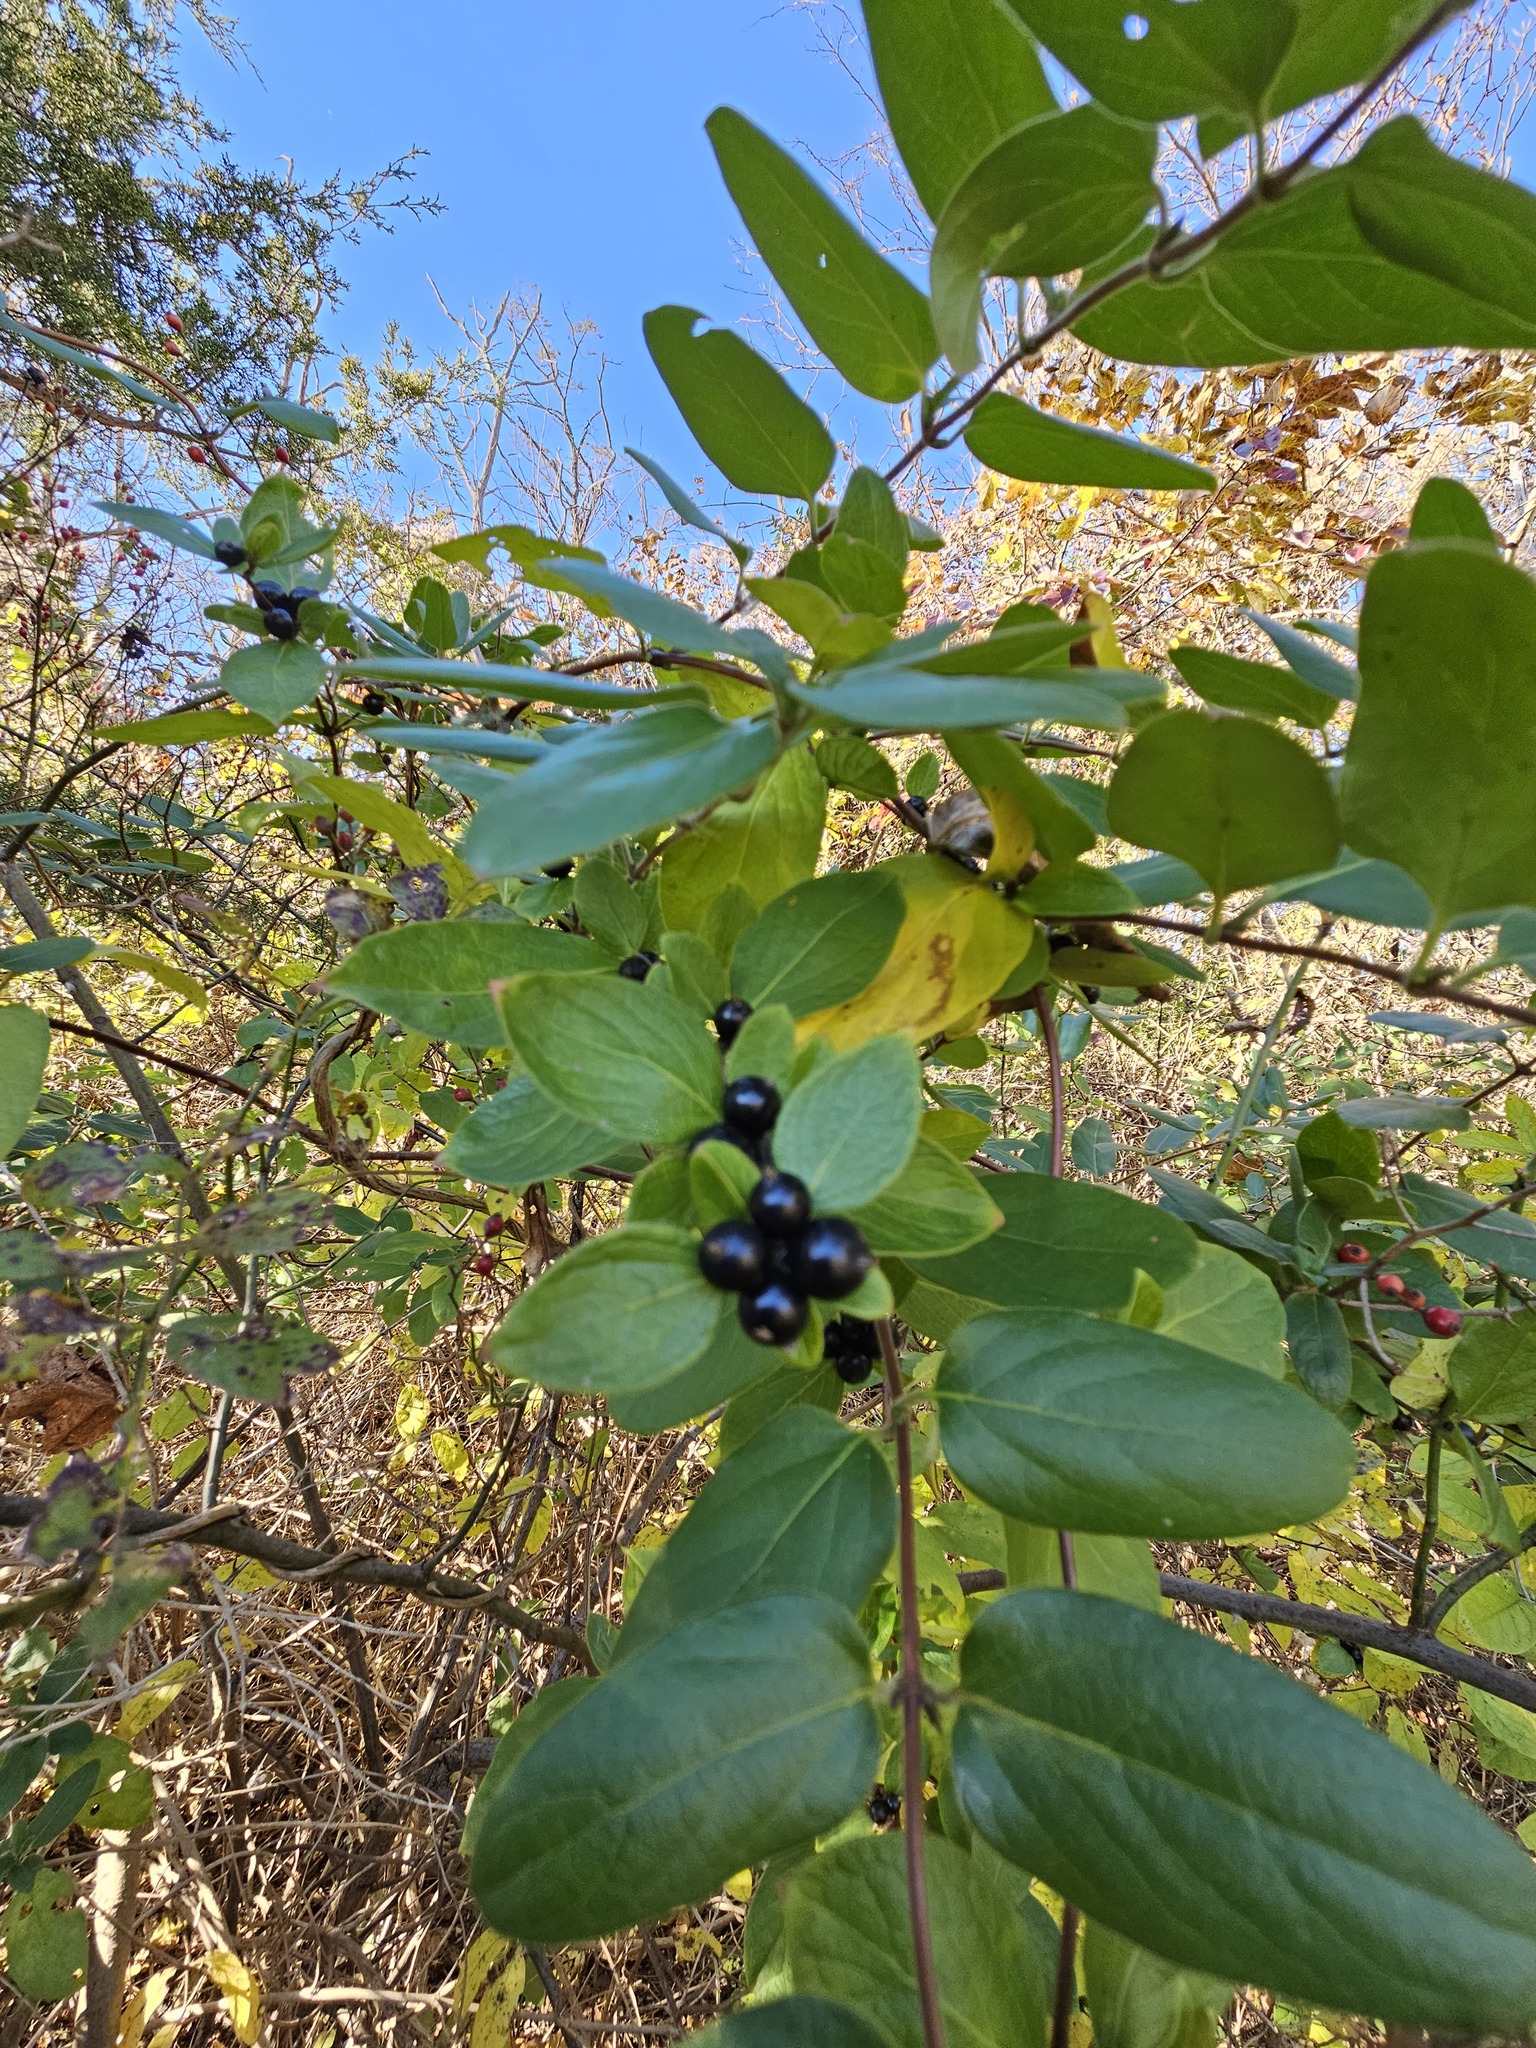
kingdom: Plantae
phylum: Tracheophyta
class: Magnoliopsida
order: Dipsacales
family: Caprifoliaceae
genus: Lonicera
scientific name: Lonicera japonica
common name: Japanese honeysuckle
